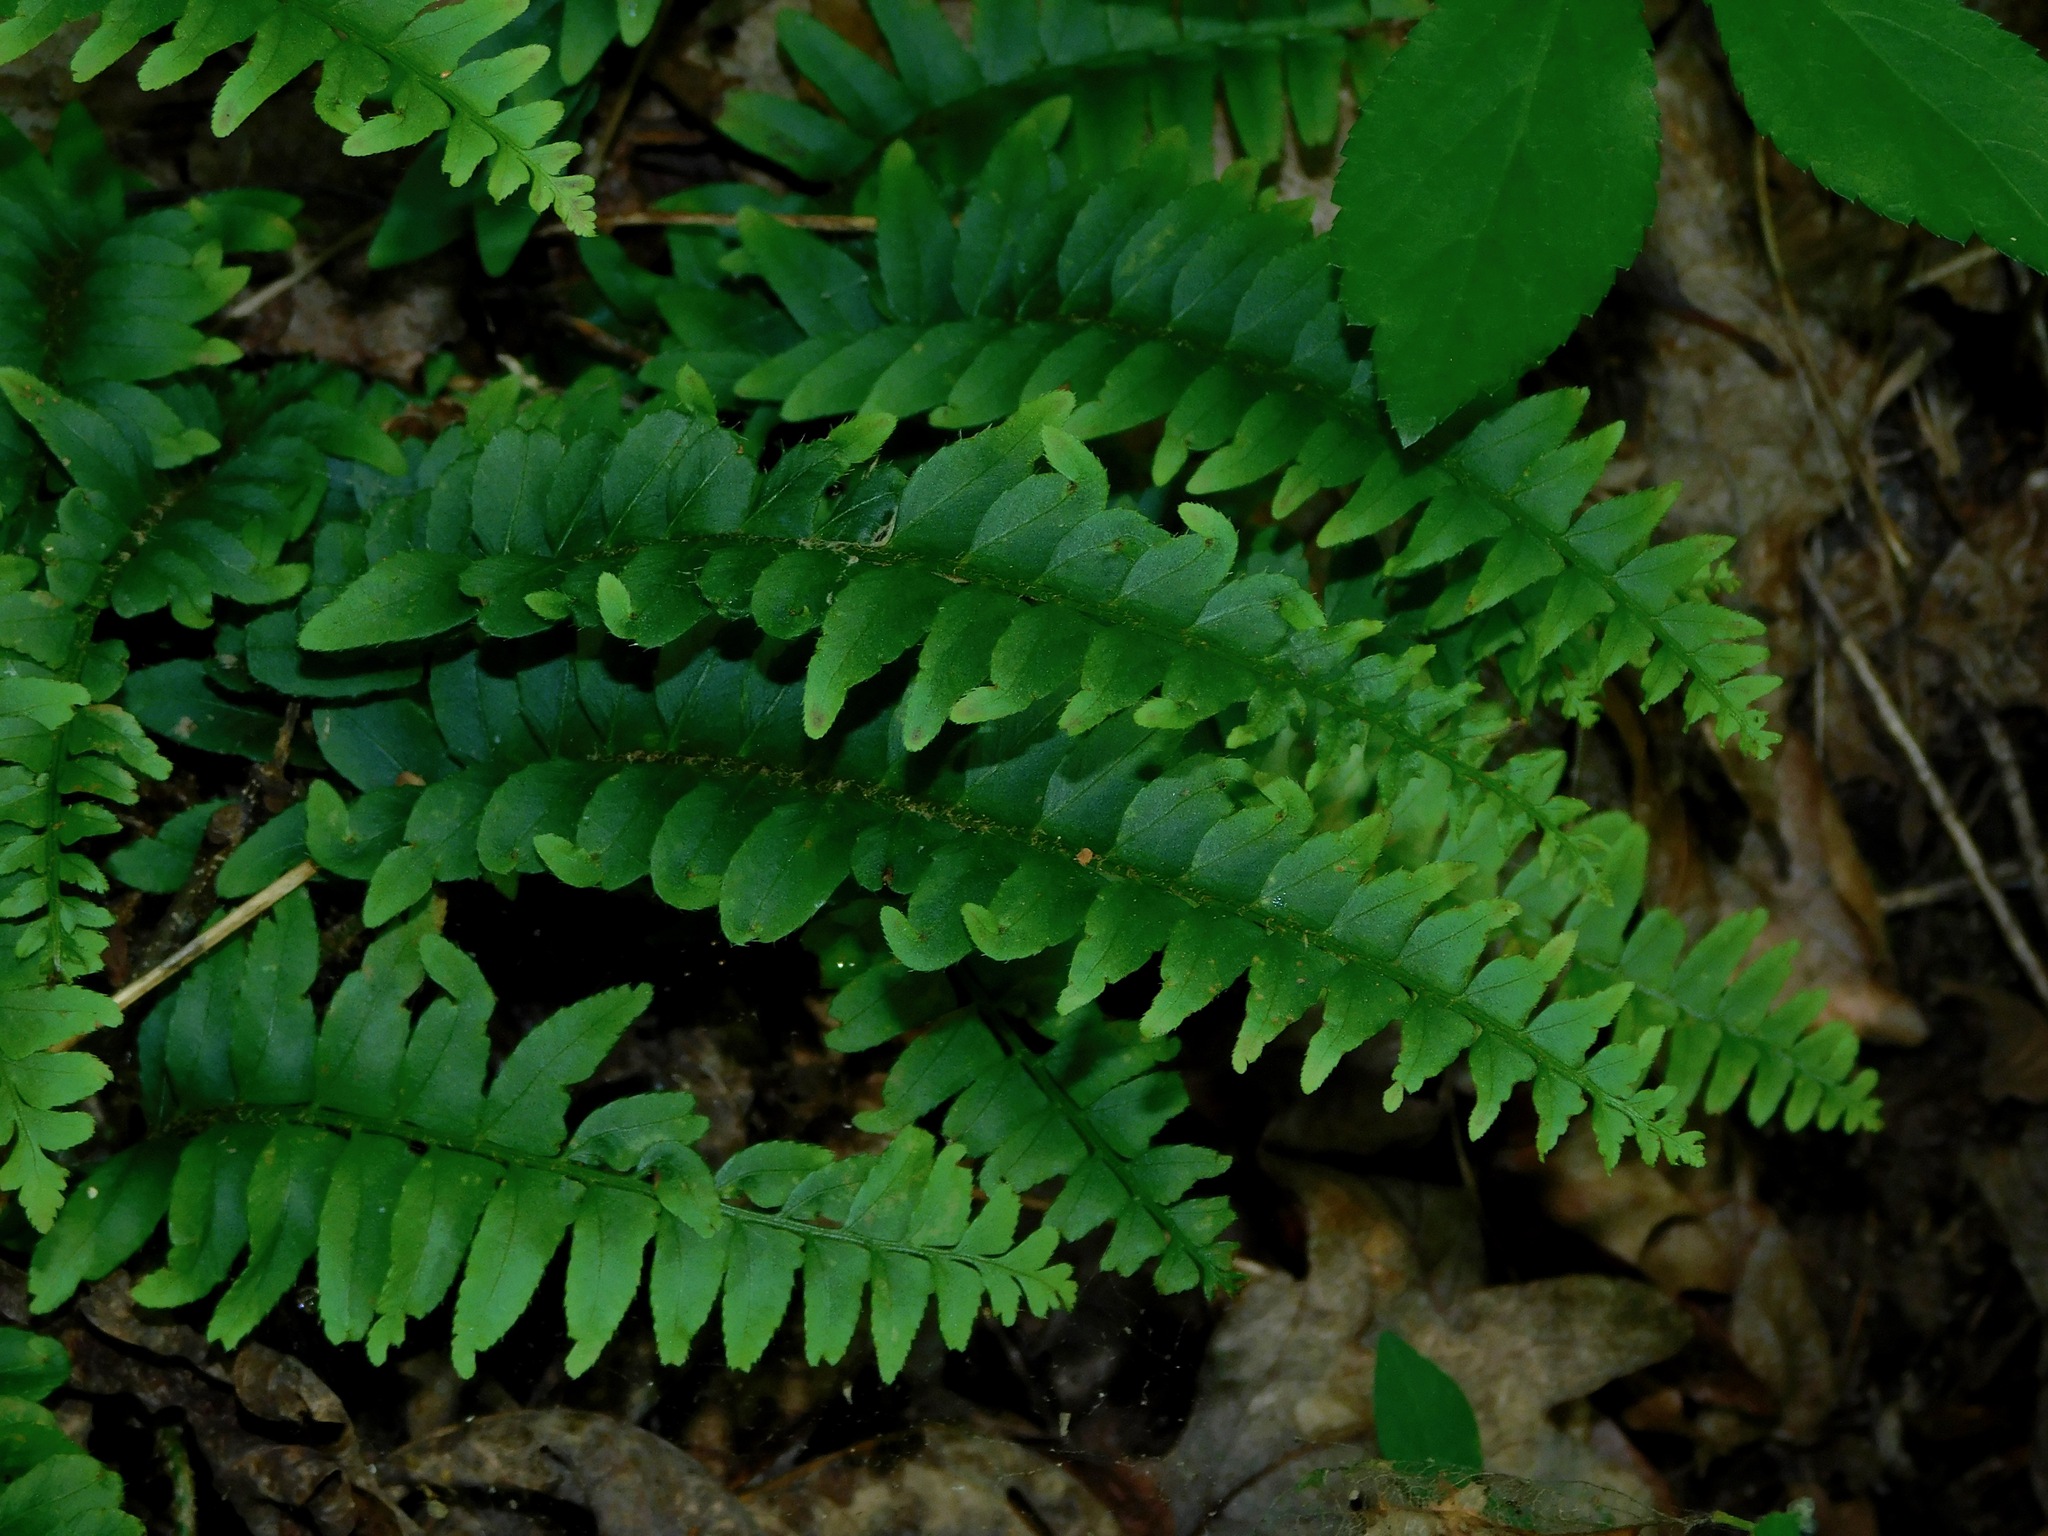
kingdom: Plantae
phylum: Tracheophyta
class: Polypodiopsida
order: Polypodiales
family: Dryopteridaceae
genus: Polystichum
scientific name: Polystichum acrostichoides
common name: Christmas fern
